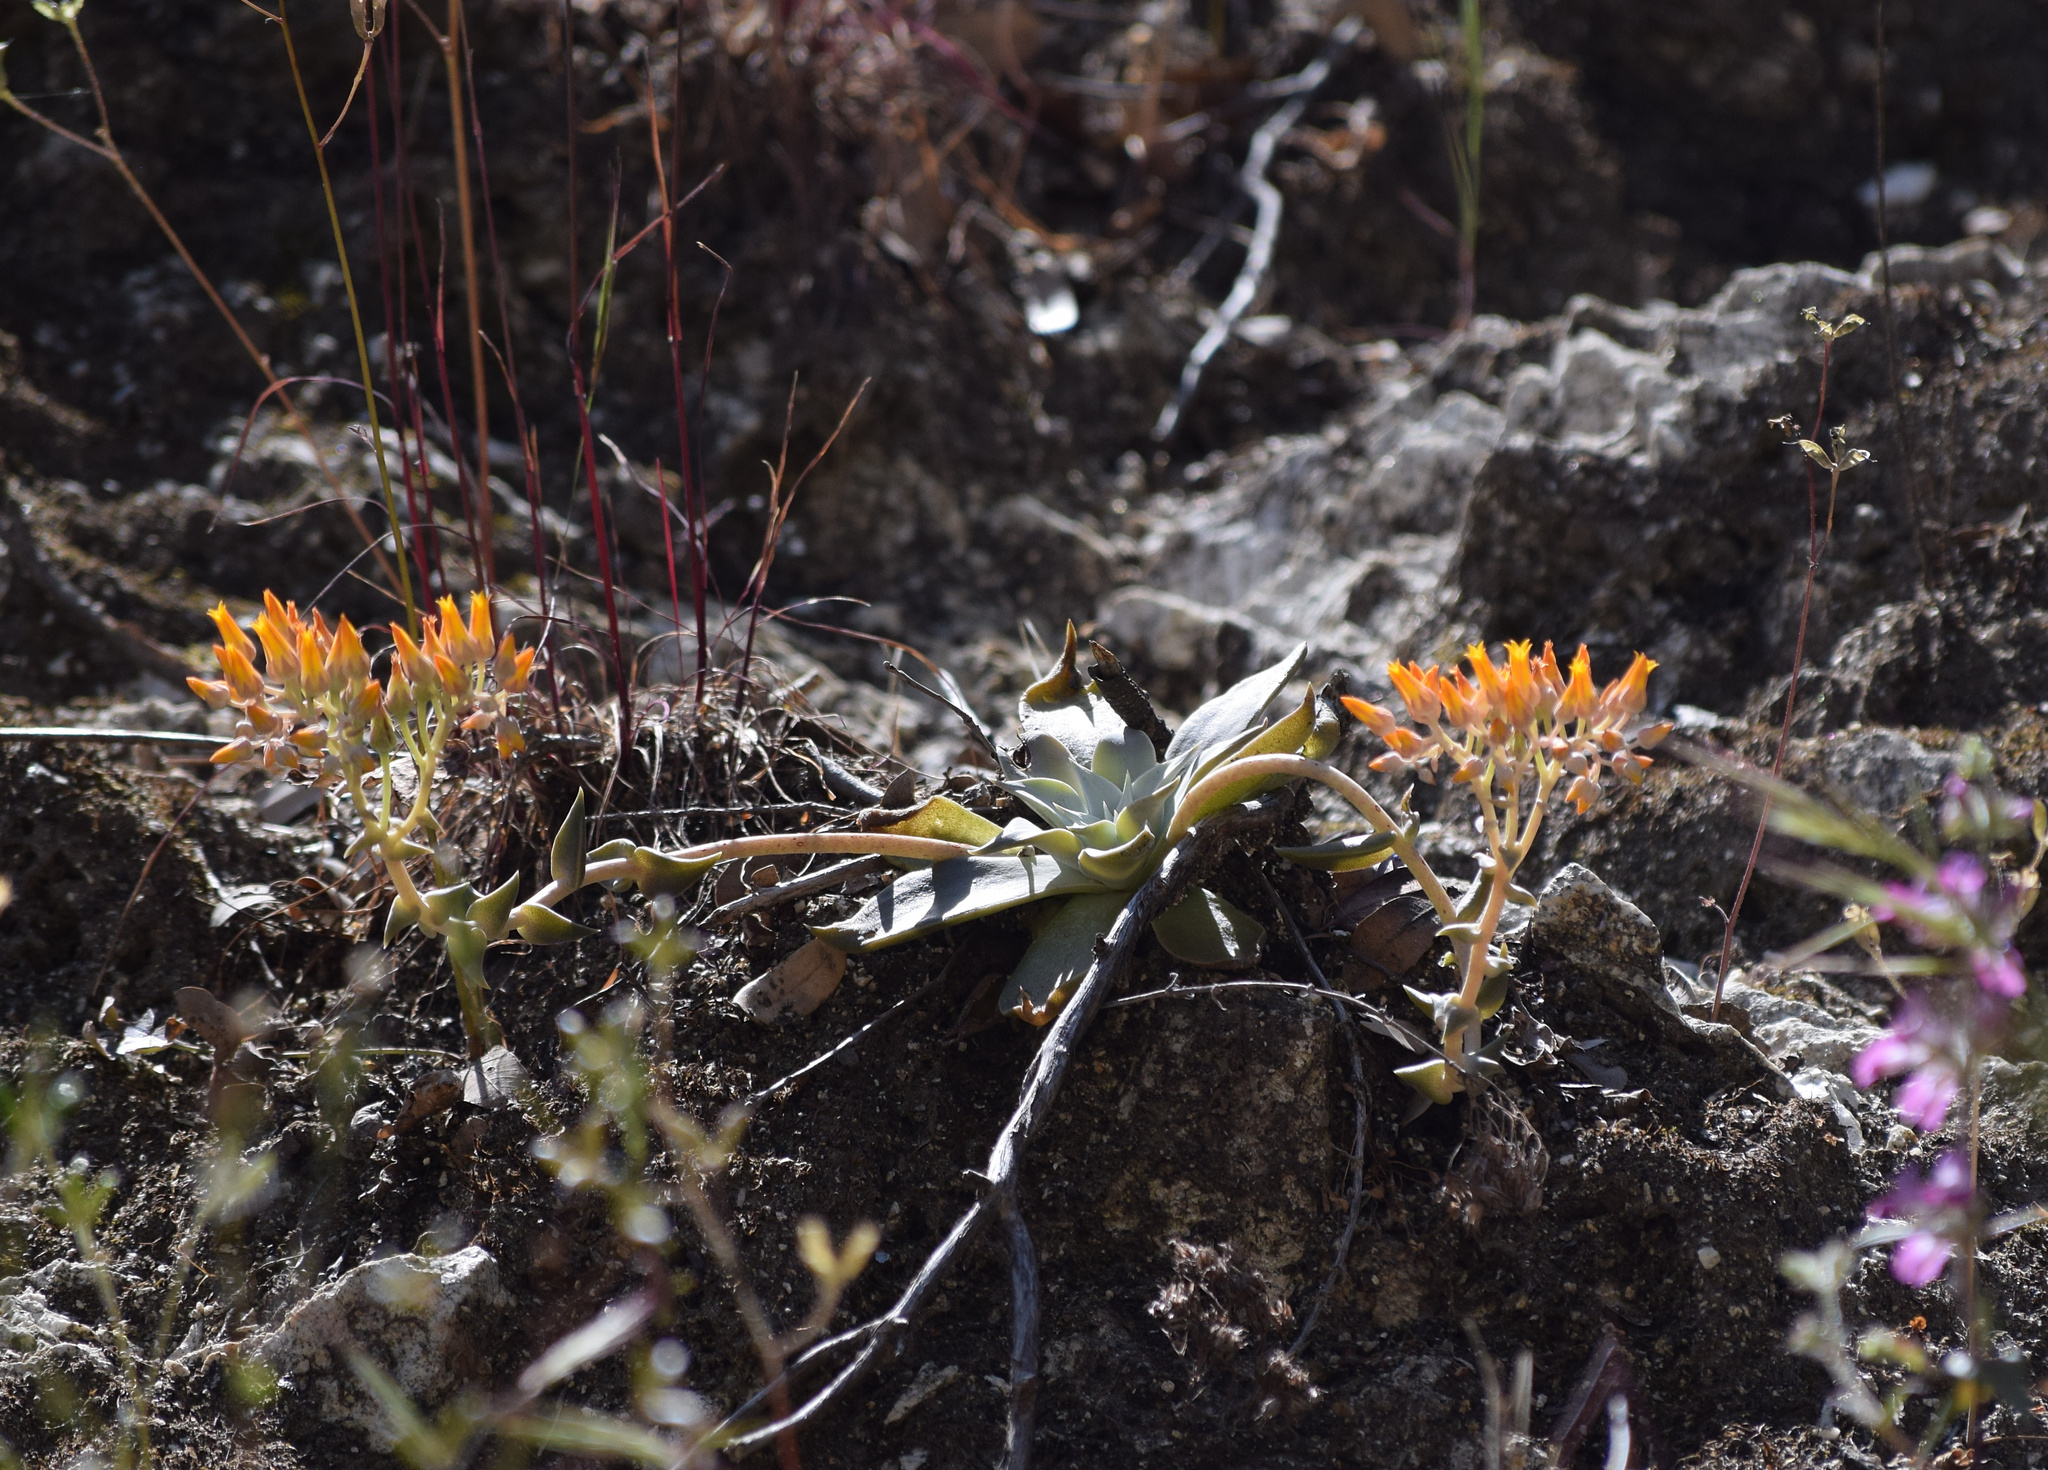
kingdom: Plantae
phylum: Tracheophyta
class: Magnoliopsida
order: Saxifragales
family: Crassulaceae
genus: Dudleya
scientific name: Dudleya cymosa
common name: Canyon dudleya
